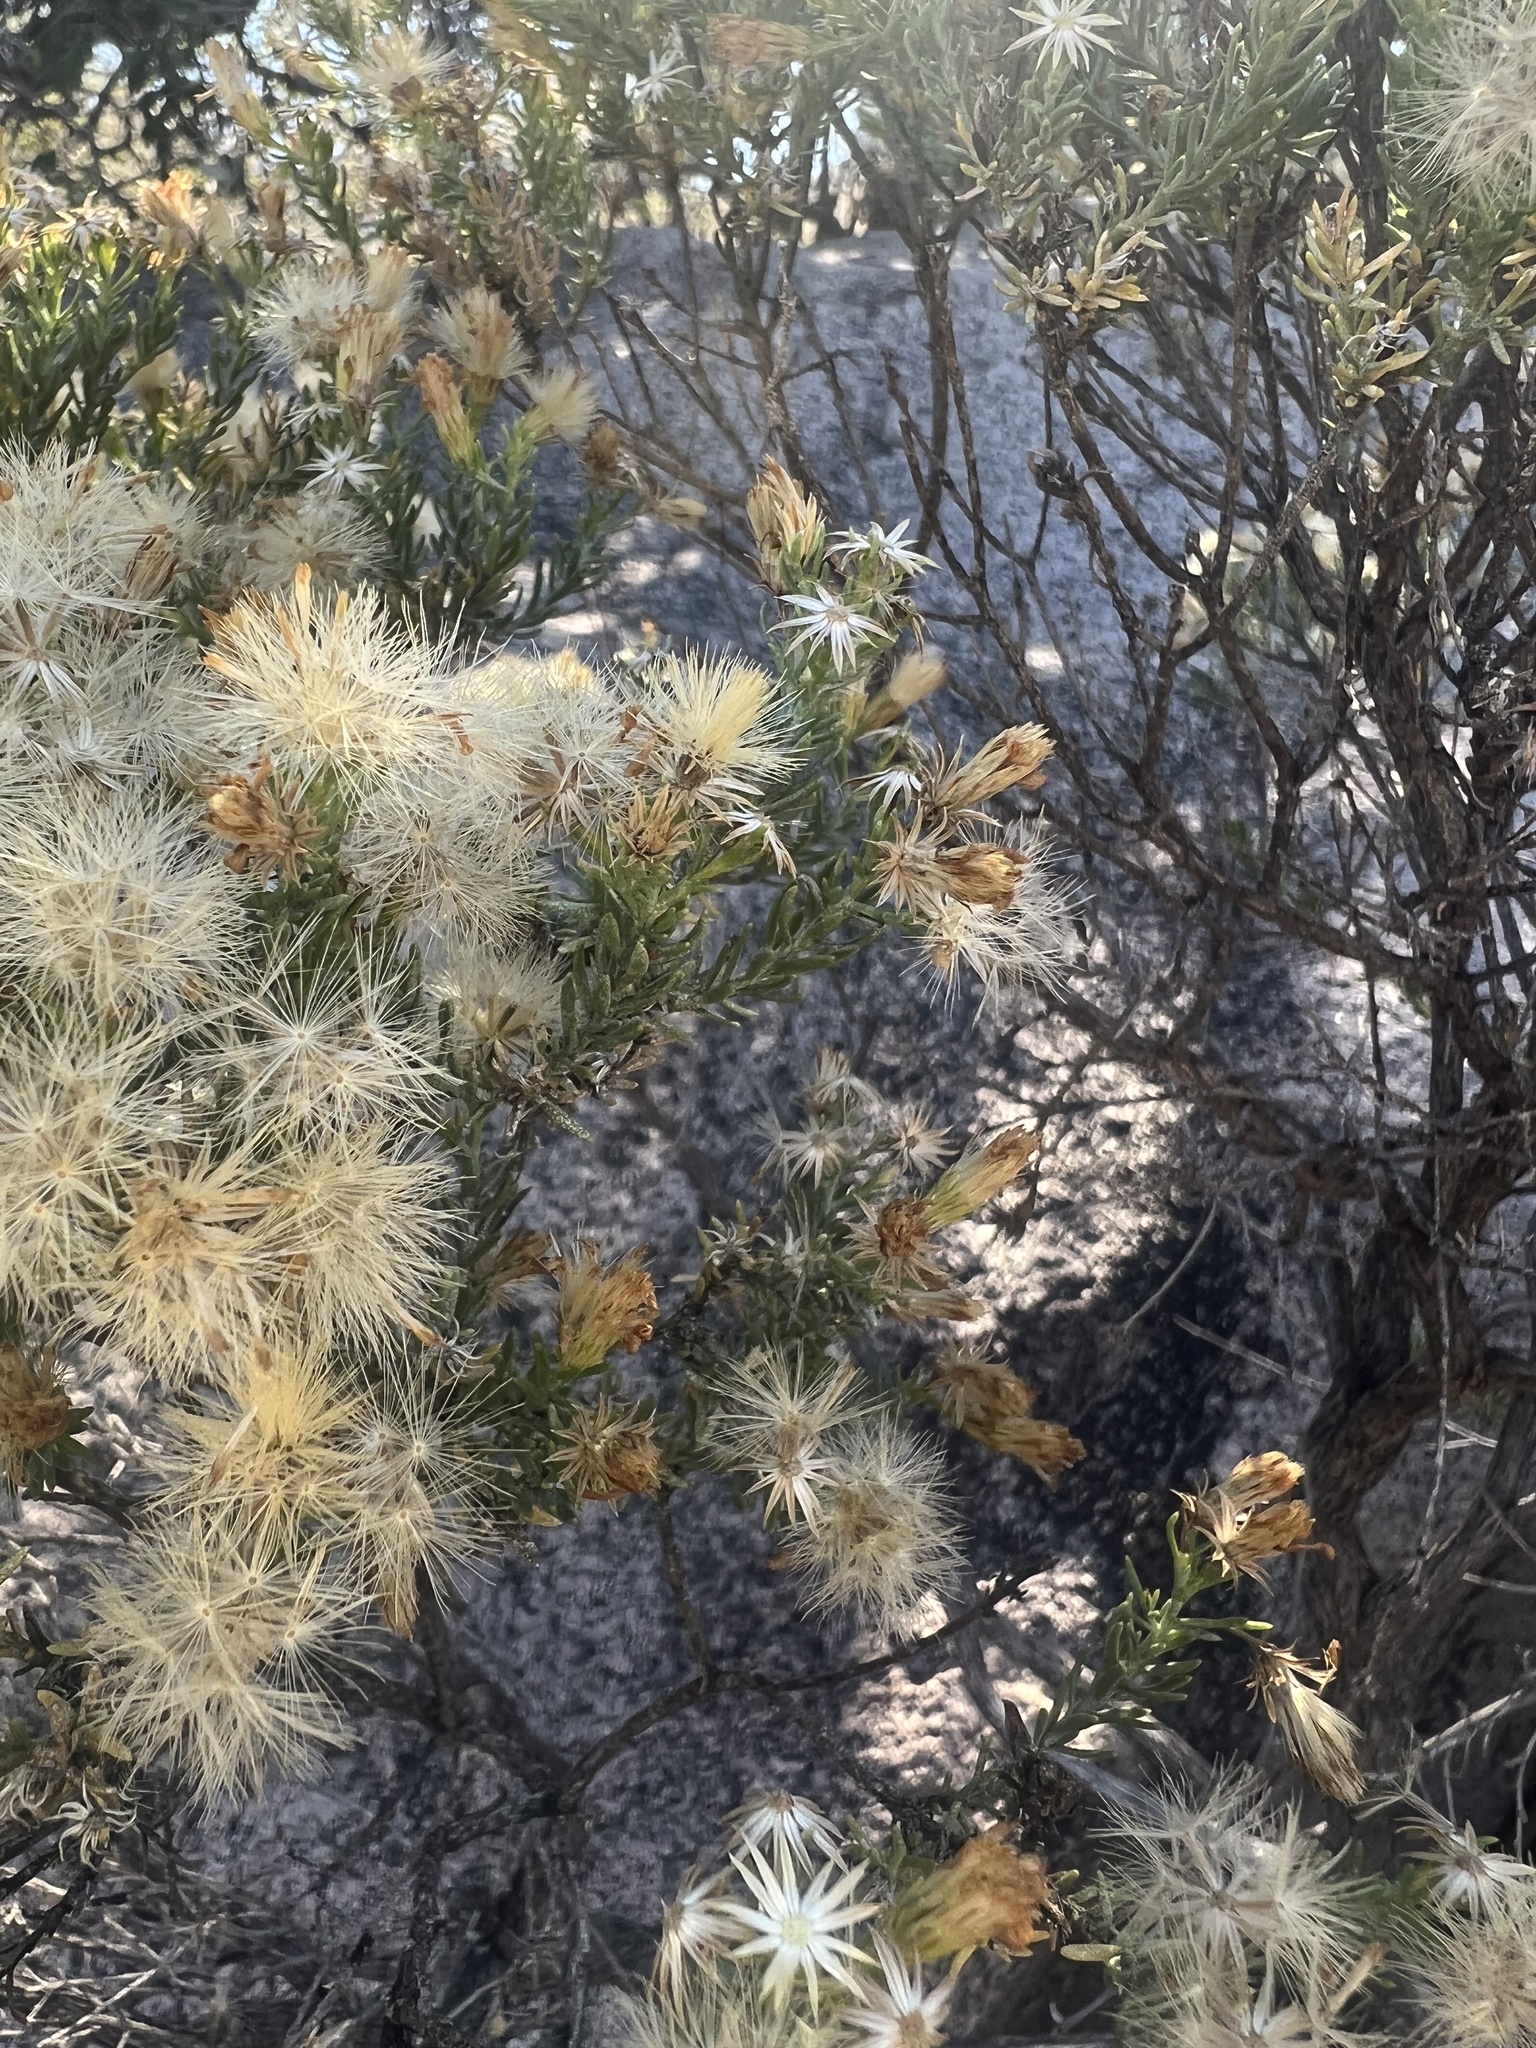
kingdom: Plantae
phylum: Tracheophyta
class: Magnoliopsida
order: Asterales
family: Asteraceae
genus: Ericameria
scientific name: Ericameria laricifolia
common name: Turpentine-bush
